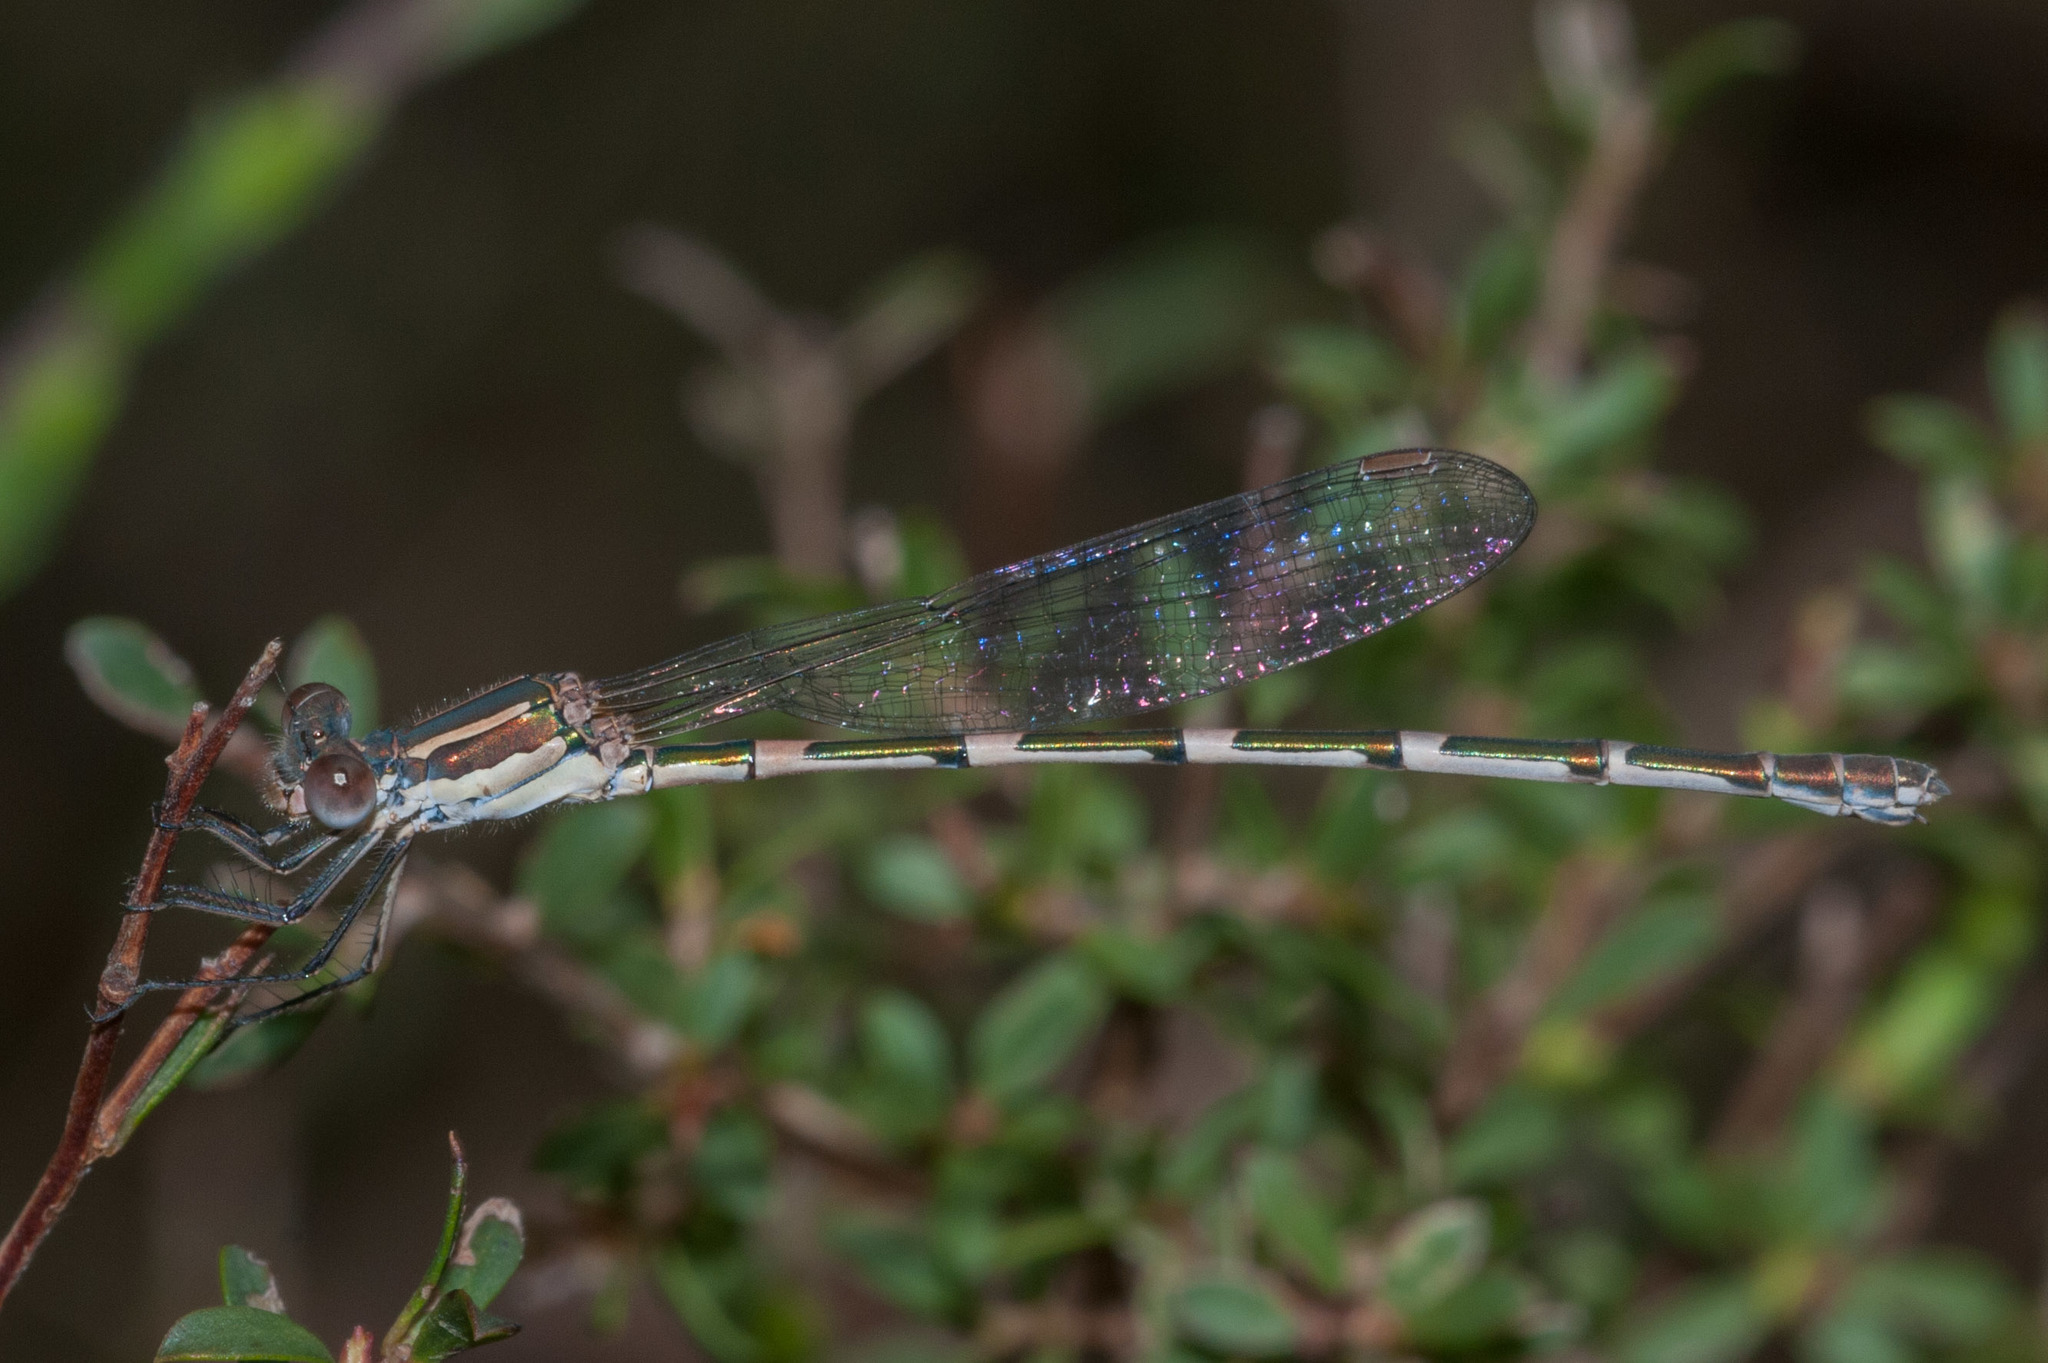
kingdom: Animalia
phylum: Arthropoda
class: Insecta
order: Odonata
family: Lestidae
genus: Austrolestes
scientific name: Austrolestes leda
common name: Wandering ringtail
